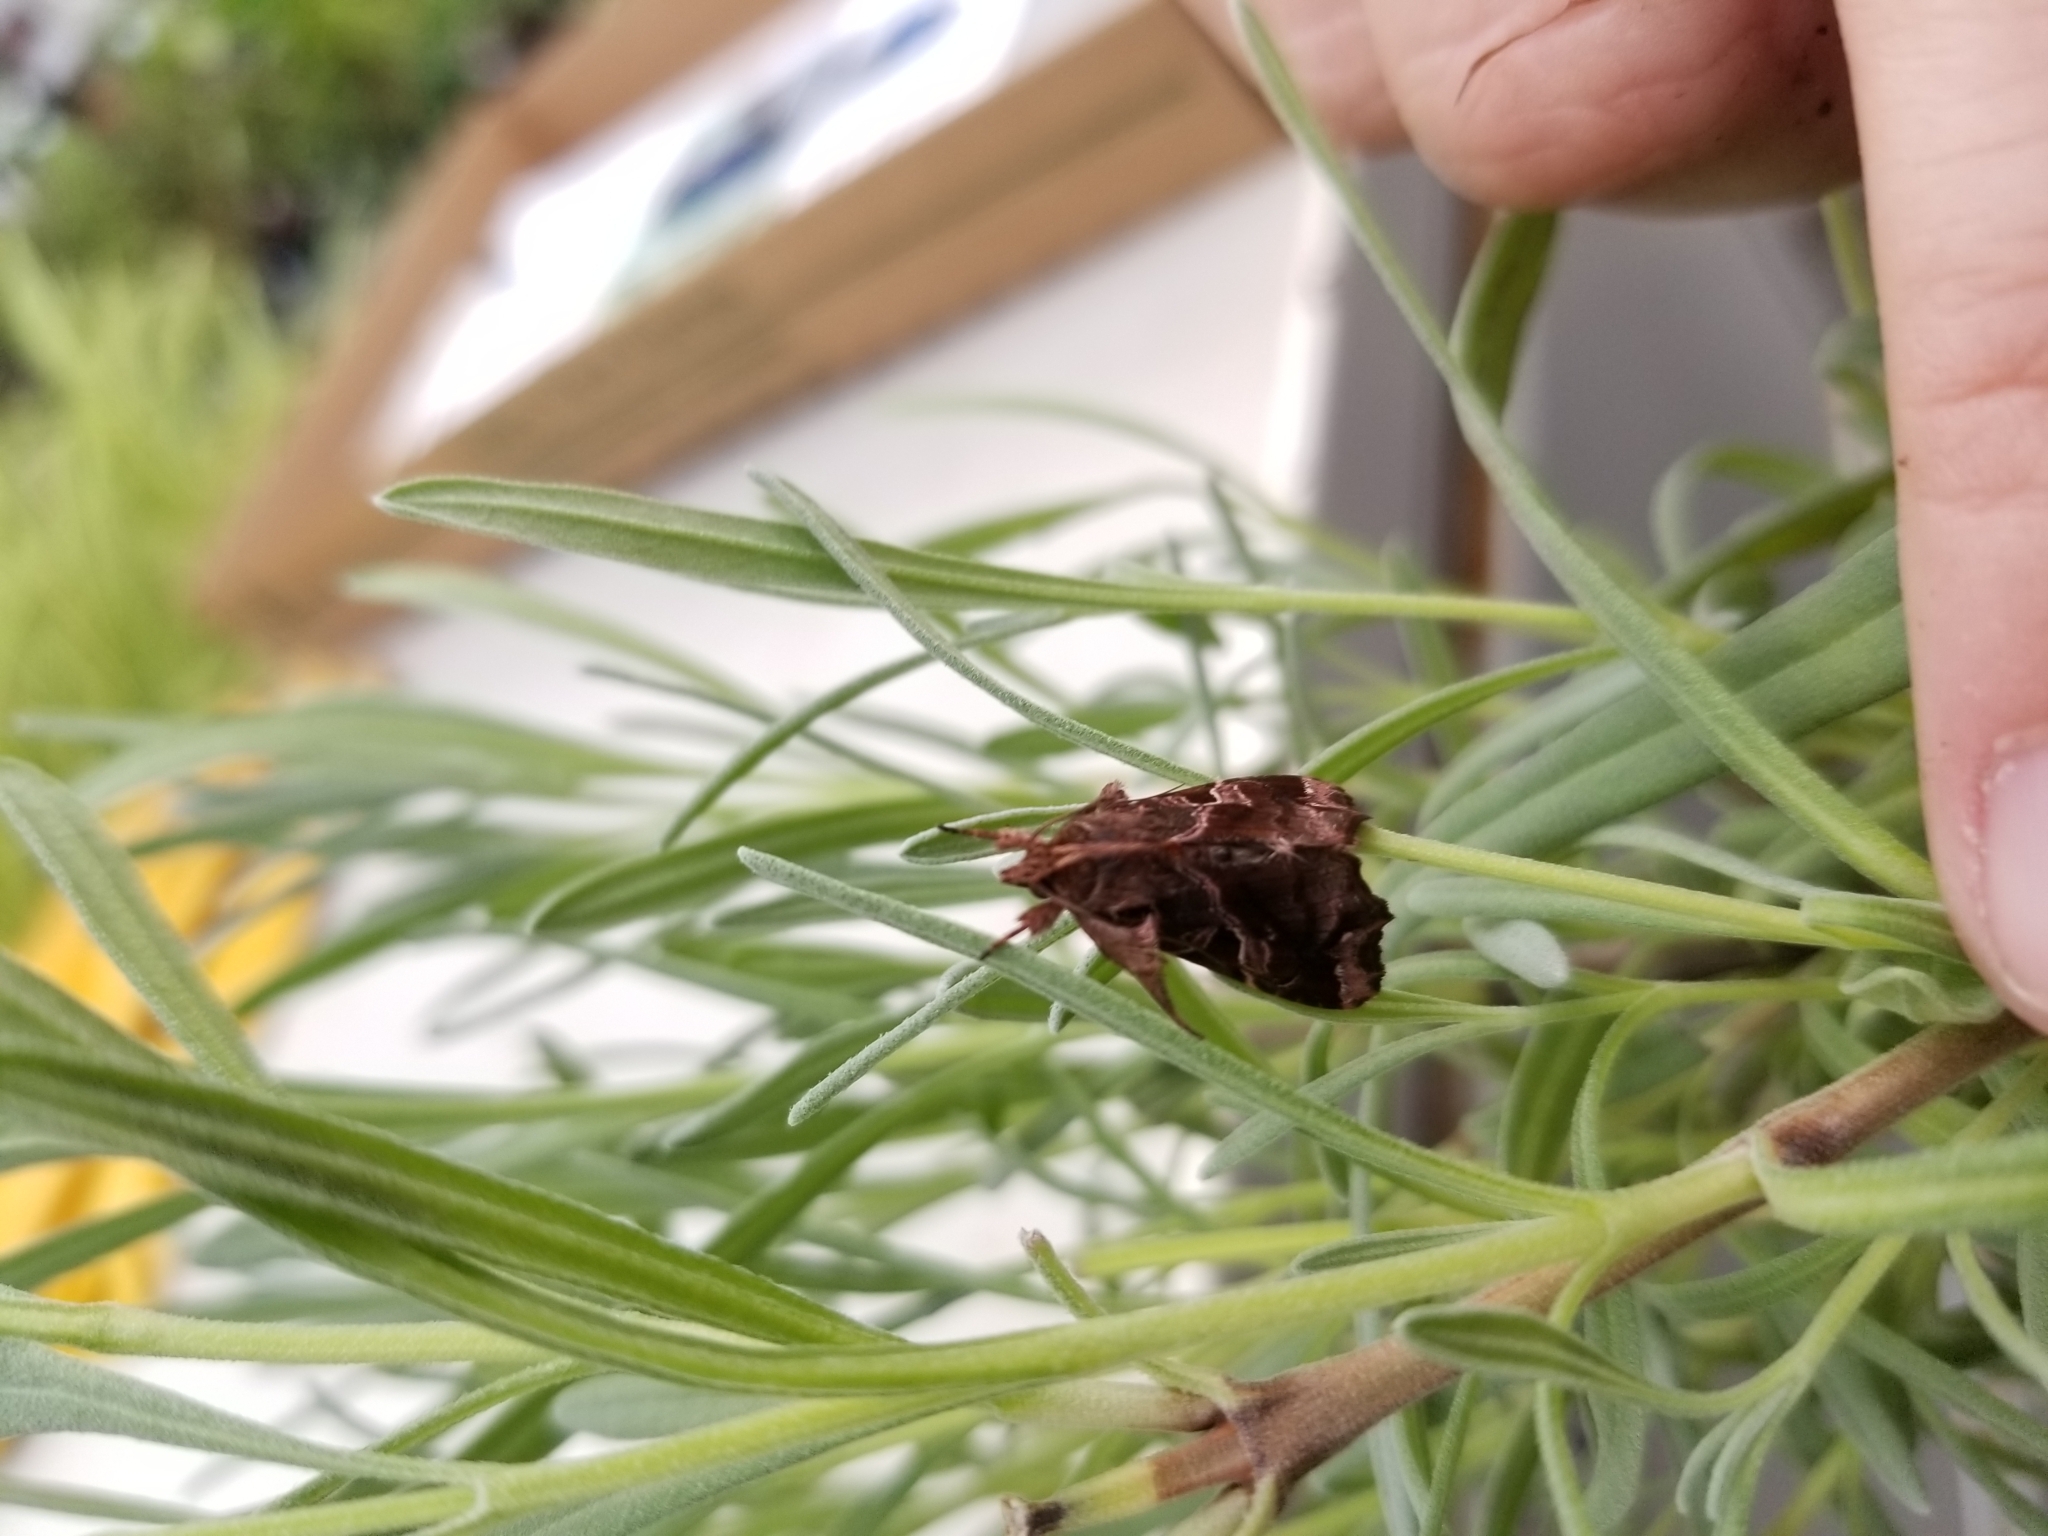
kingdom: Animalia
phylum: Arthropoda
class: Insecta
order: Lepidoptera
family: Noctuidae
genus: Callopistria
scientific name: Callopistria floridensis
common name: Florida fern moth
